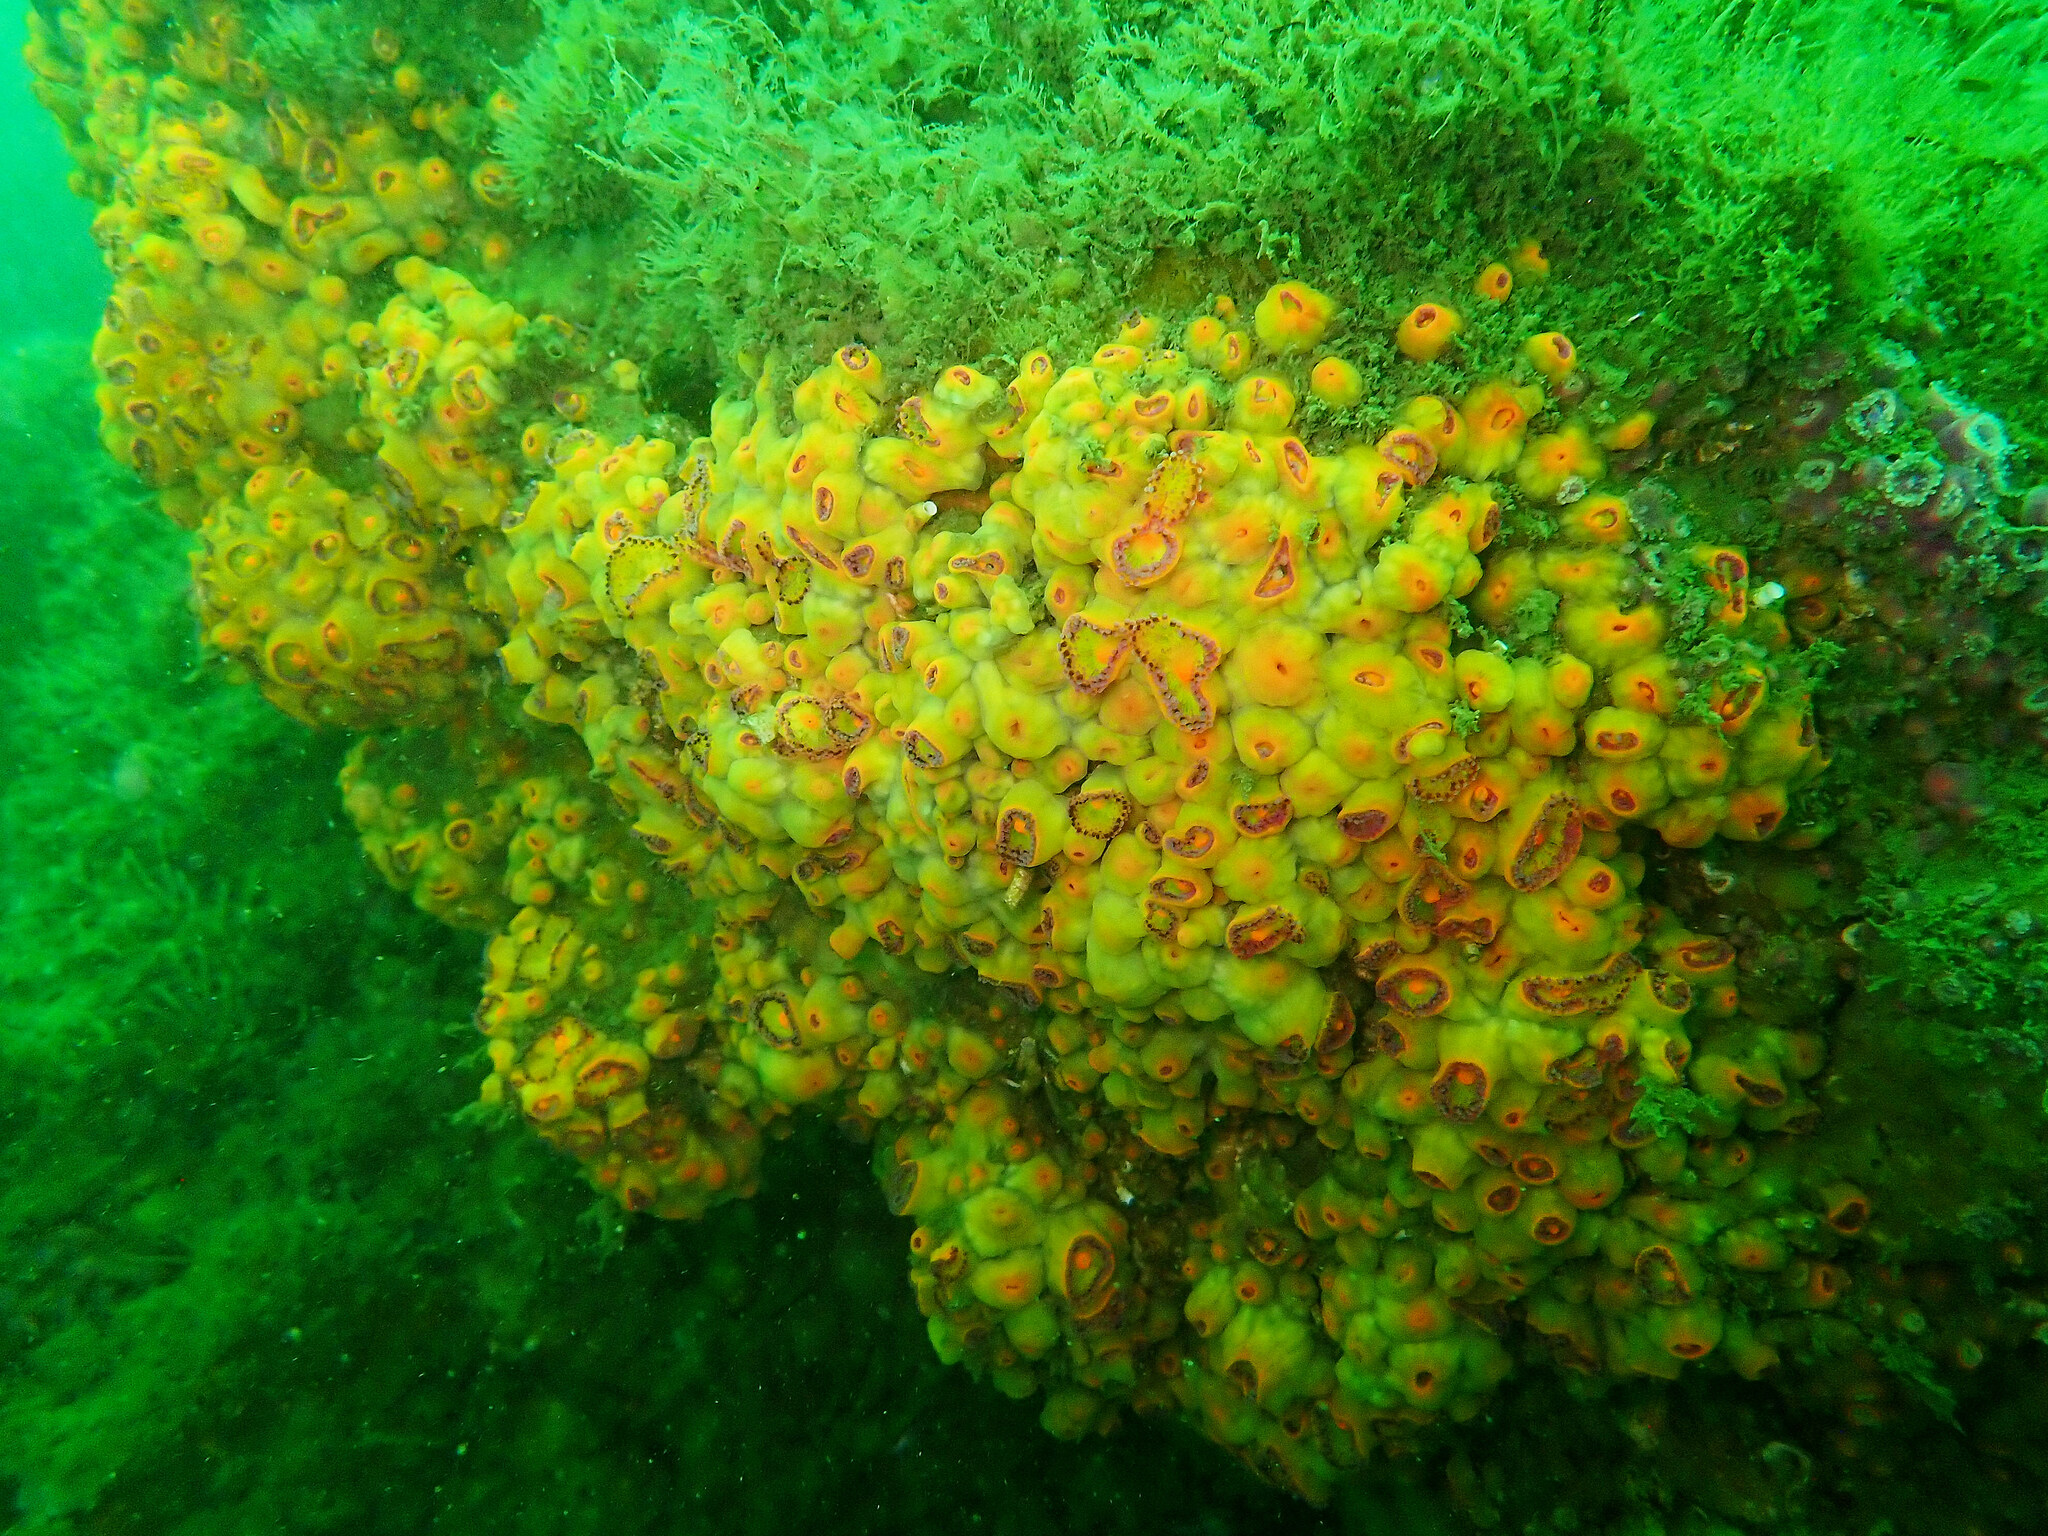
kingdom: Animalia
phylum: Cnidaria
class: Anthozoa
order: Corallimorpharia
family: Corallimorphidae
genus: Corynactis
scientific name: Corynactis viridis
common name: Jewel anemone
